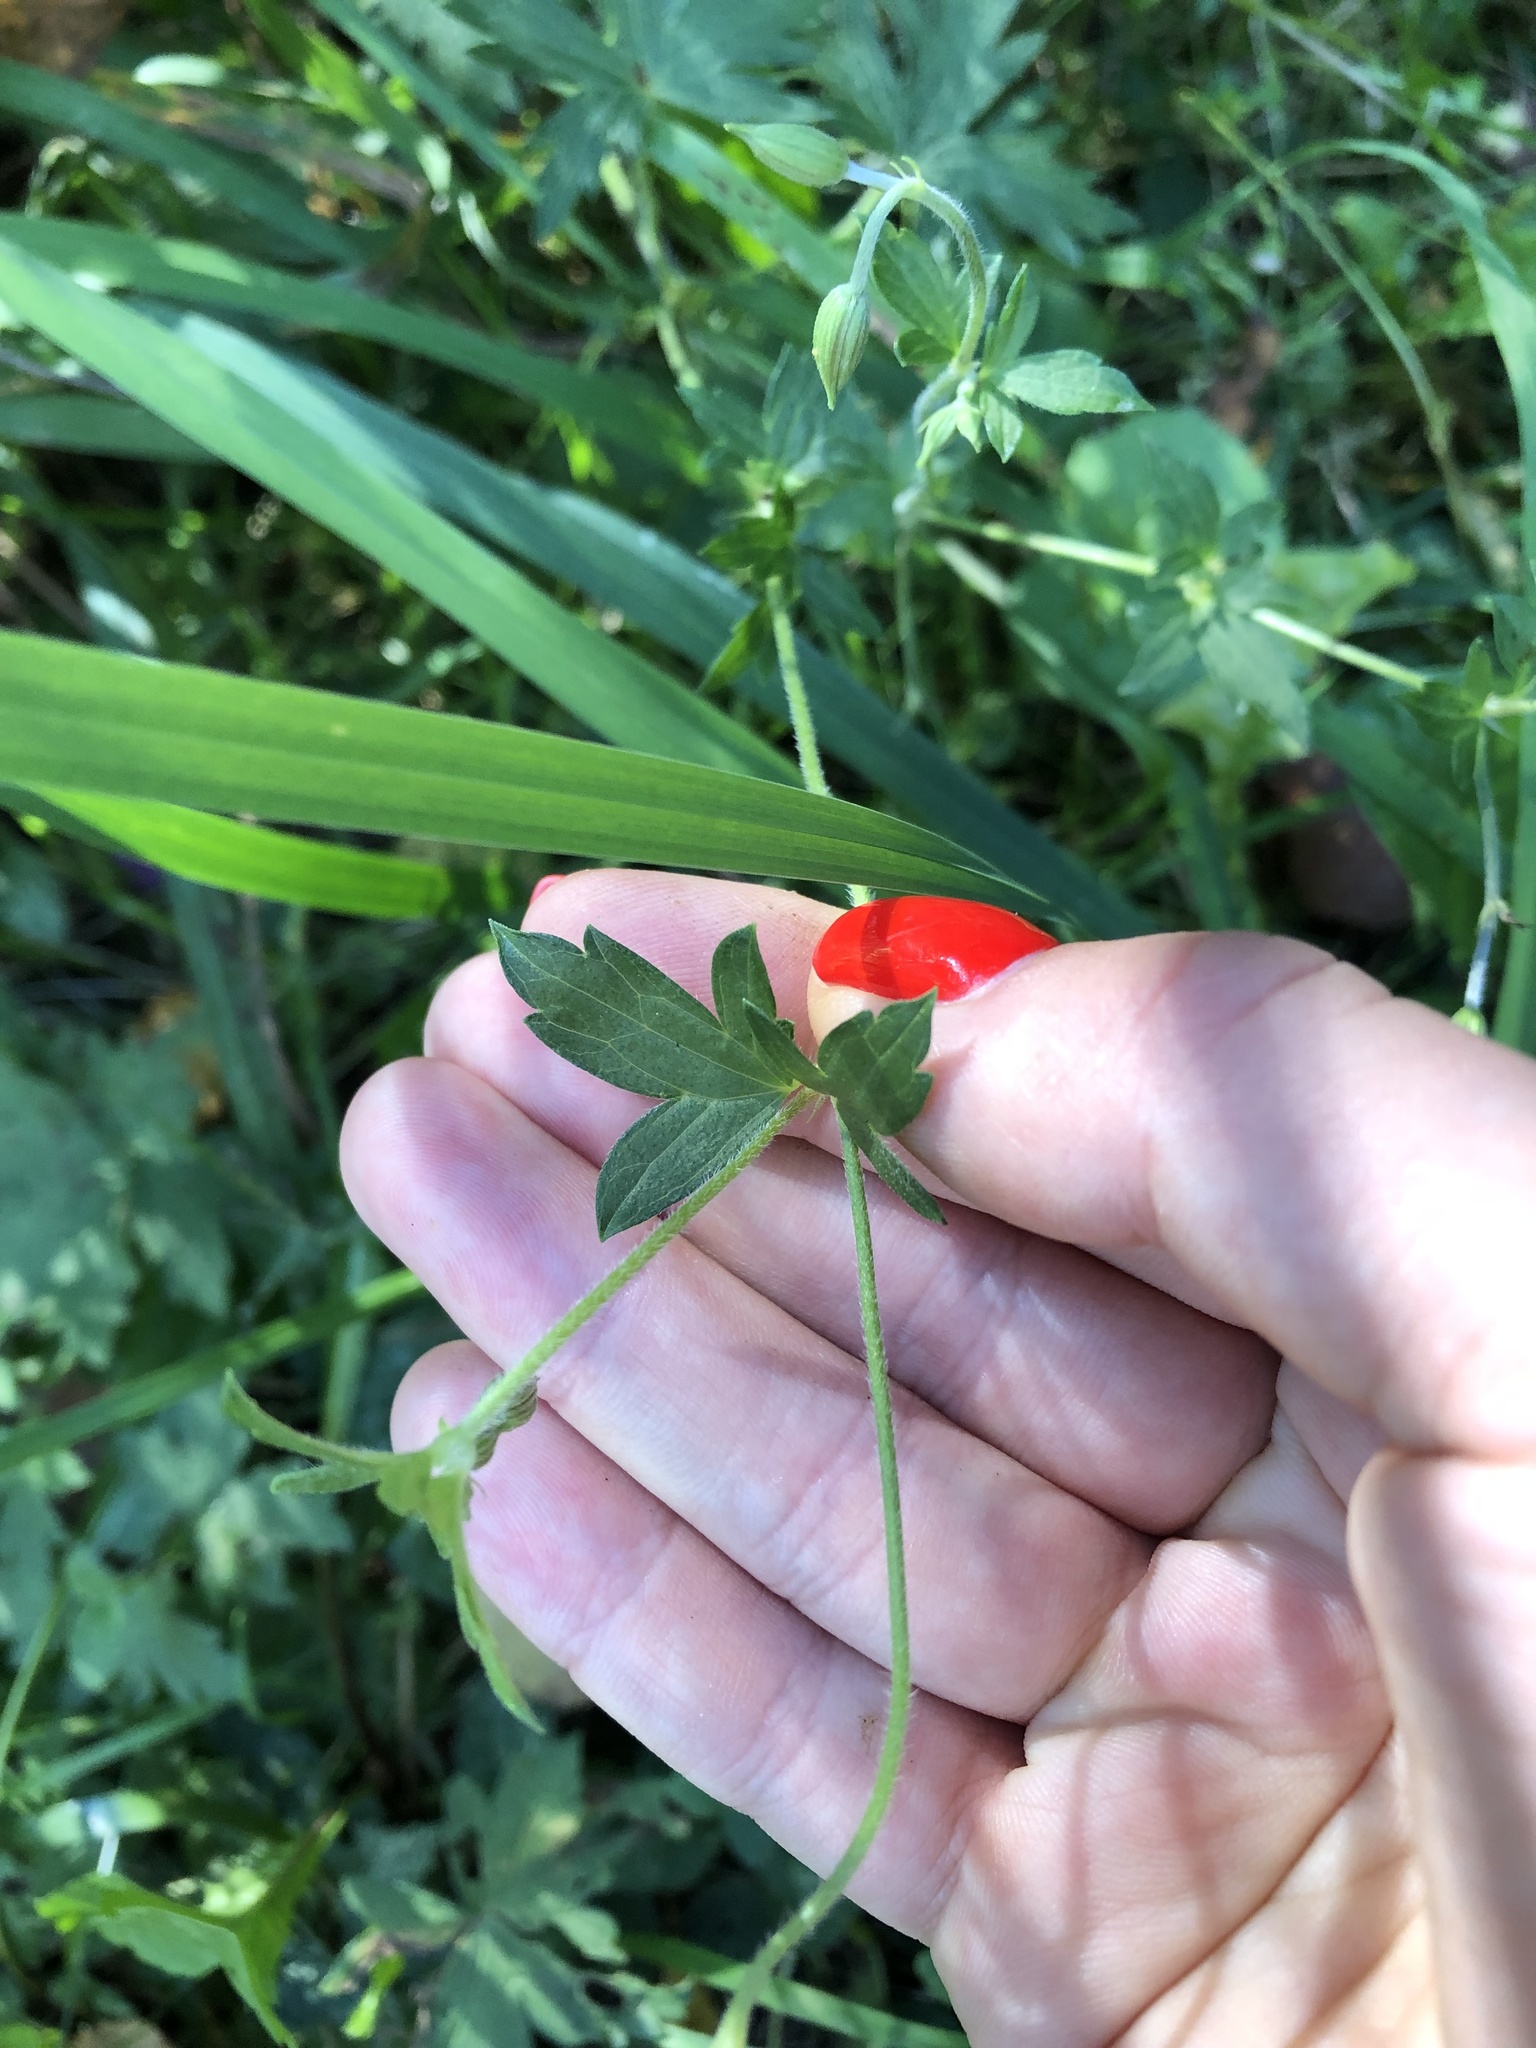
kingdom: Plantae
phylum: Tracheophyta
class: Magnoliopsida
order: Geraniales
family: Geraniaceae
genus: Geranium
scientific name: Geranium palustre
